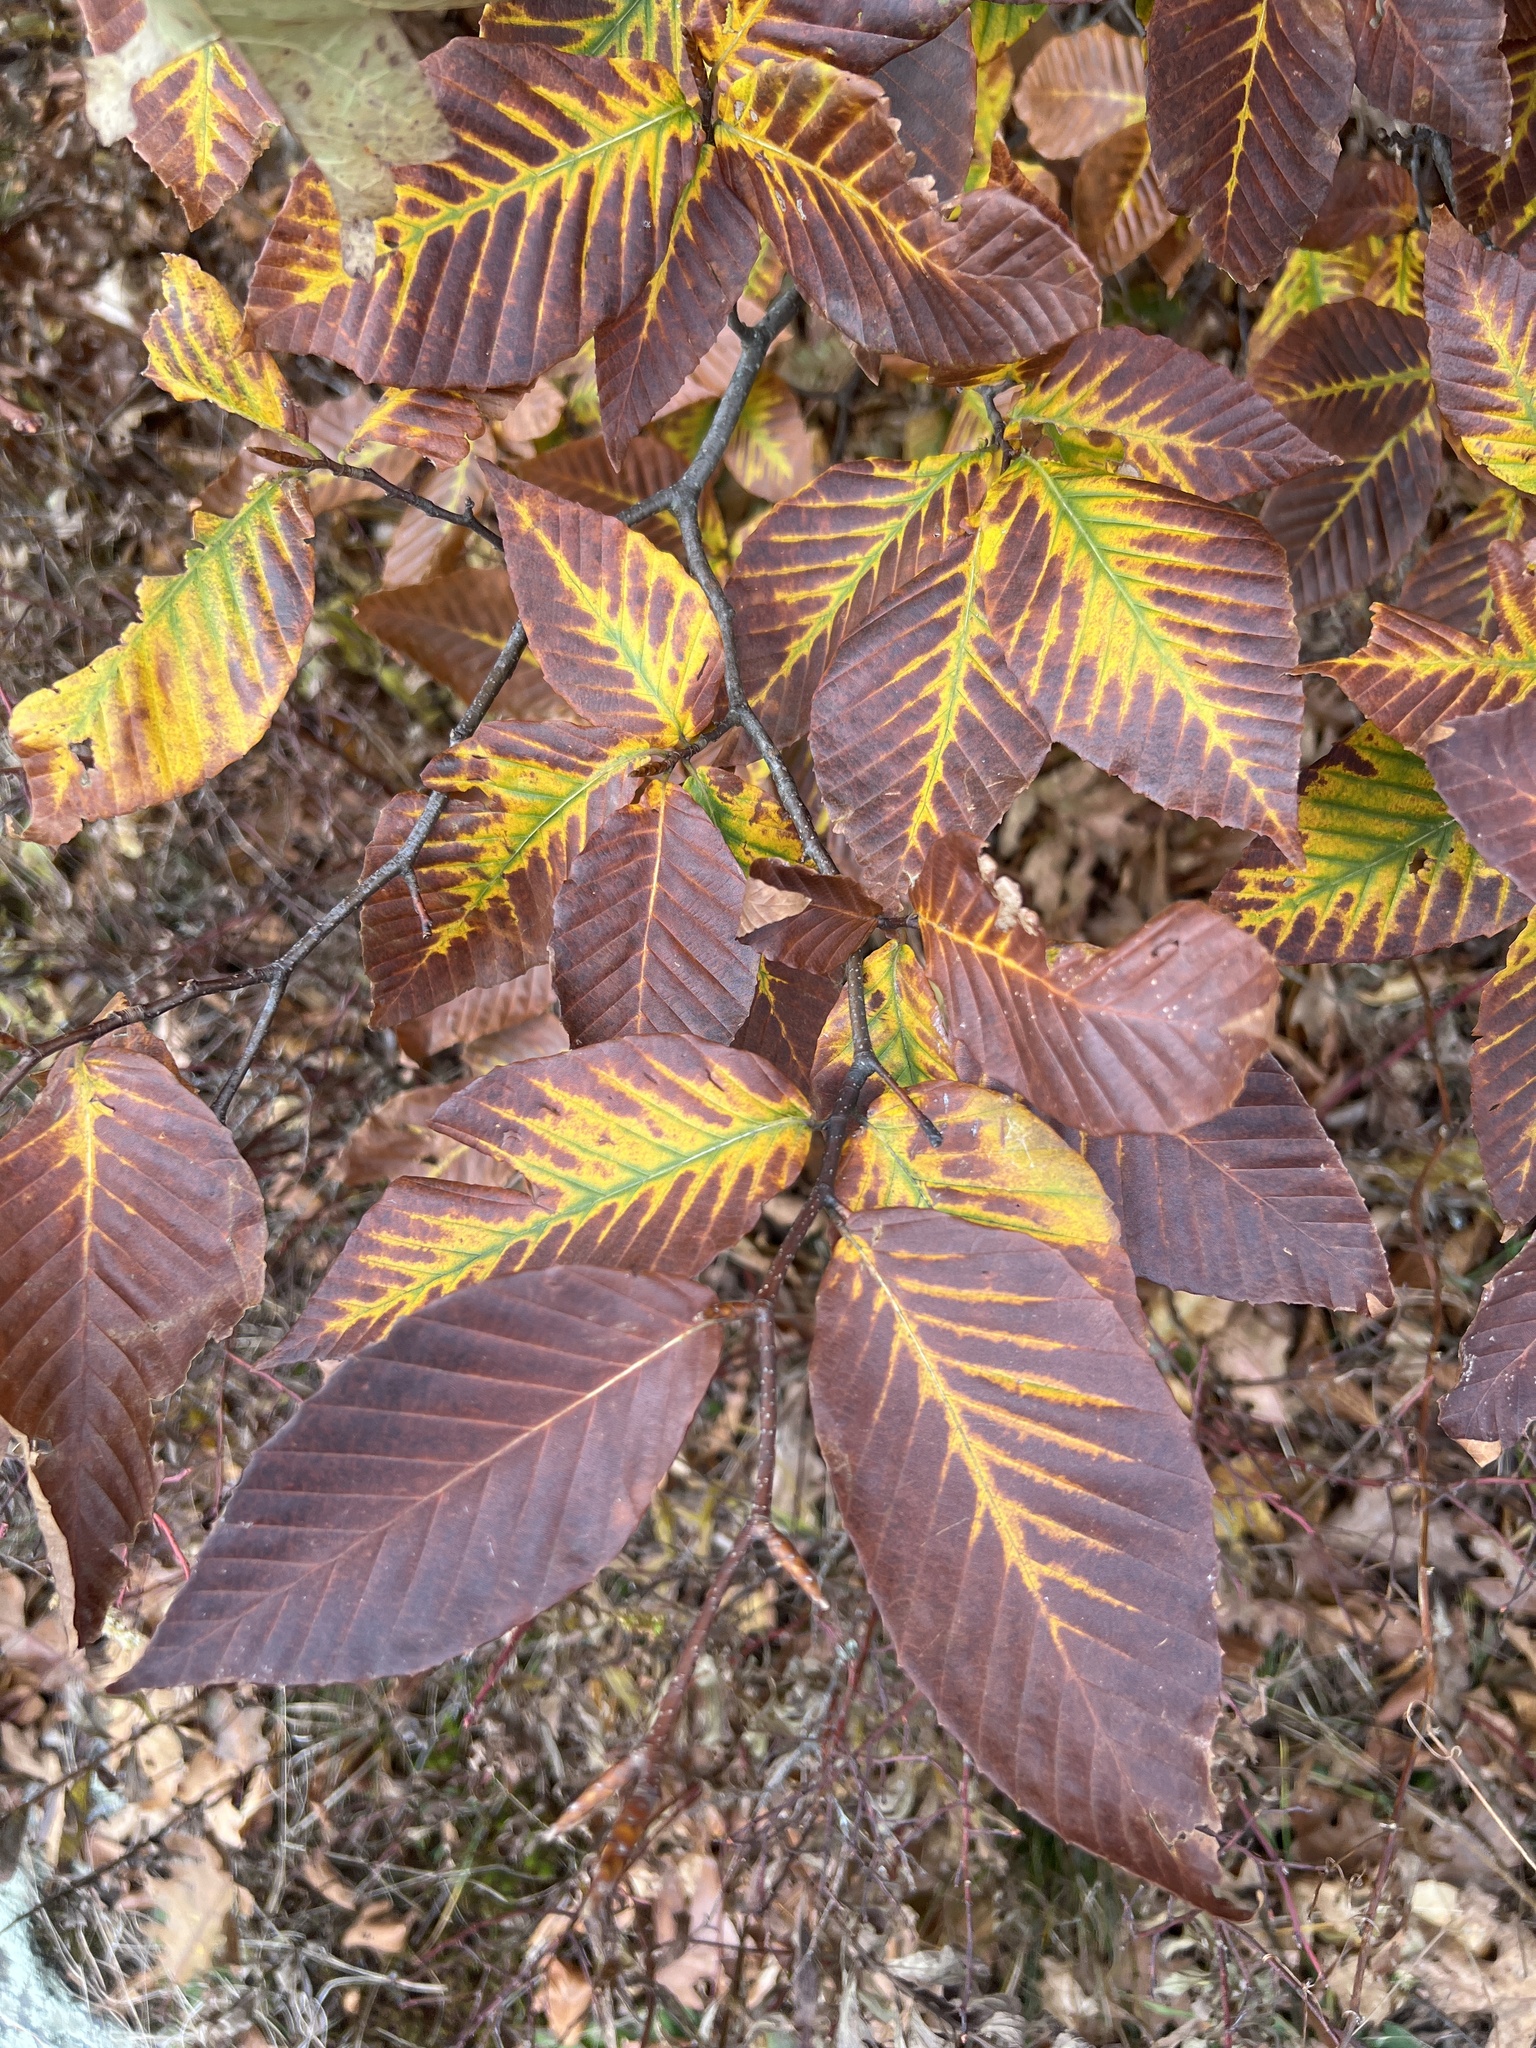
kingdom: Plantae
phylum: Tracheophyta
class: Magnoliopsida
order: Fagales
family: Fagaceae
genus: Fagus
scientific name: Fagus grandifolia
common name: American beech
